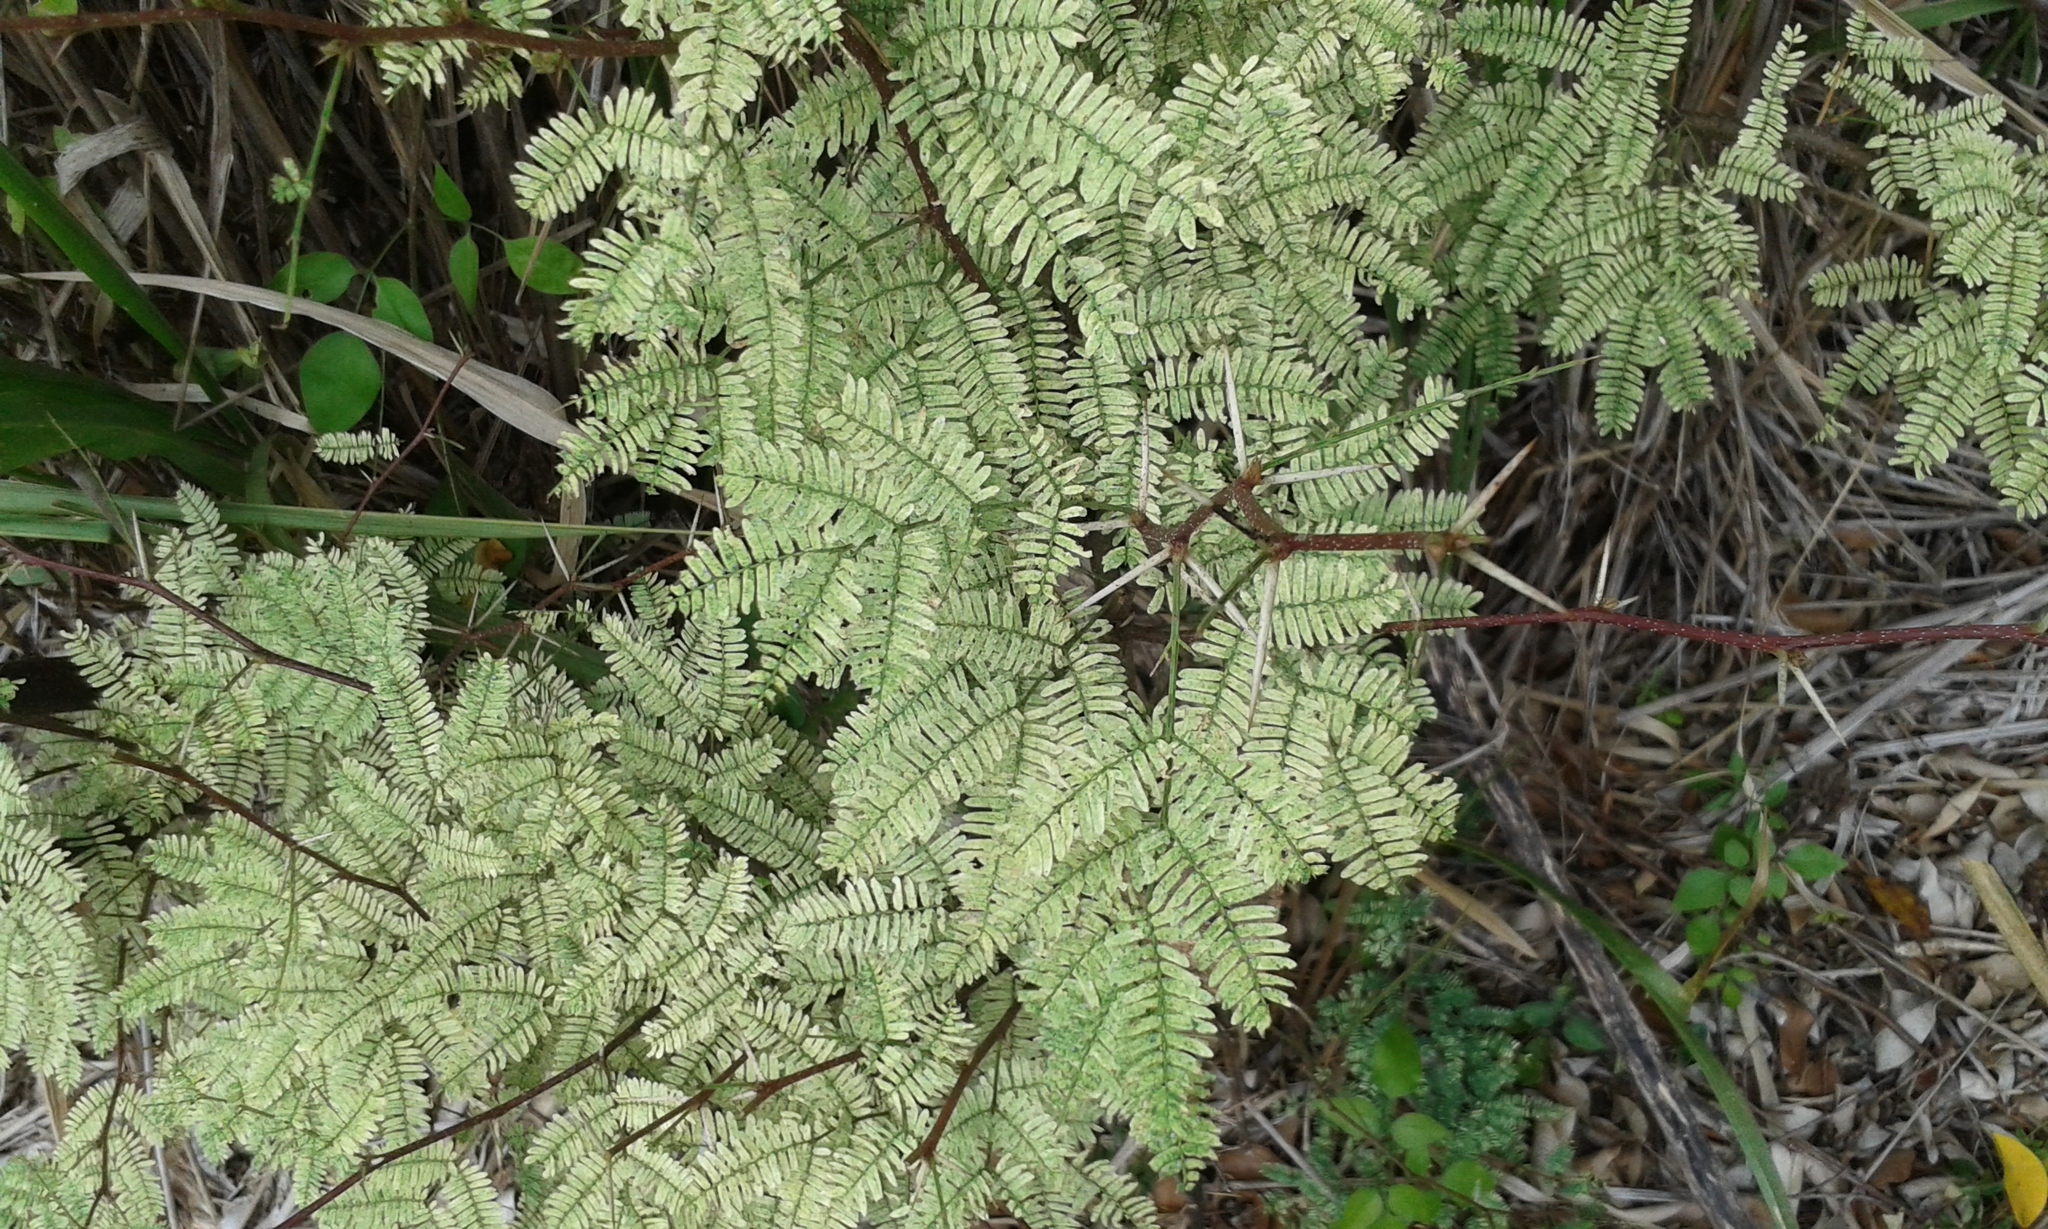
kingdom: Plantae
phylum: Tracheophyta
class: Magnoliopsida
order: Fabales
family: Fabaceae
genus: Prosopis
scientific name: Prosopis pallida
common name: Mesquite
